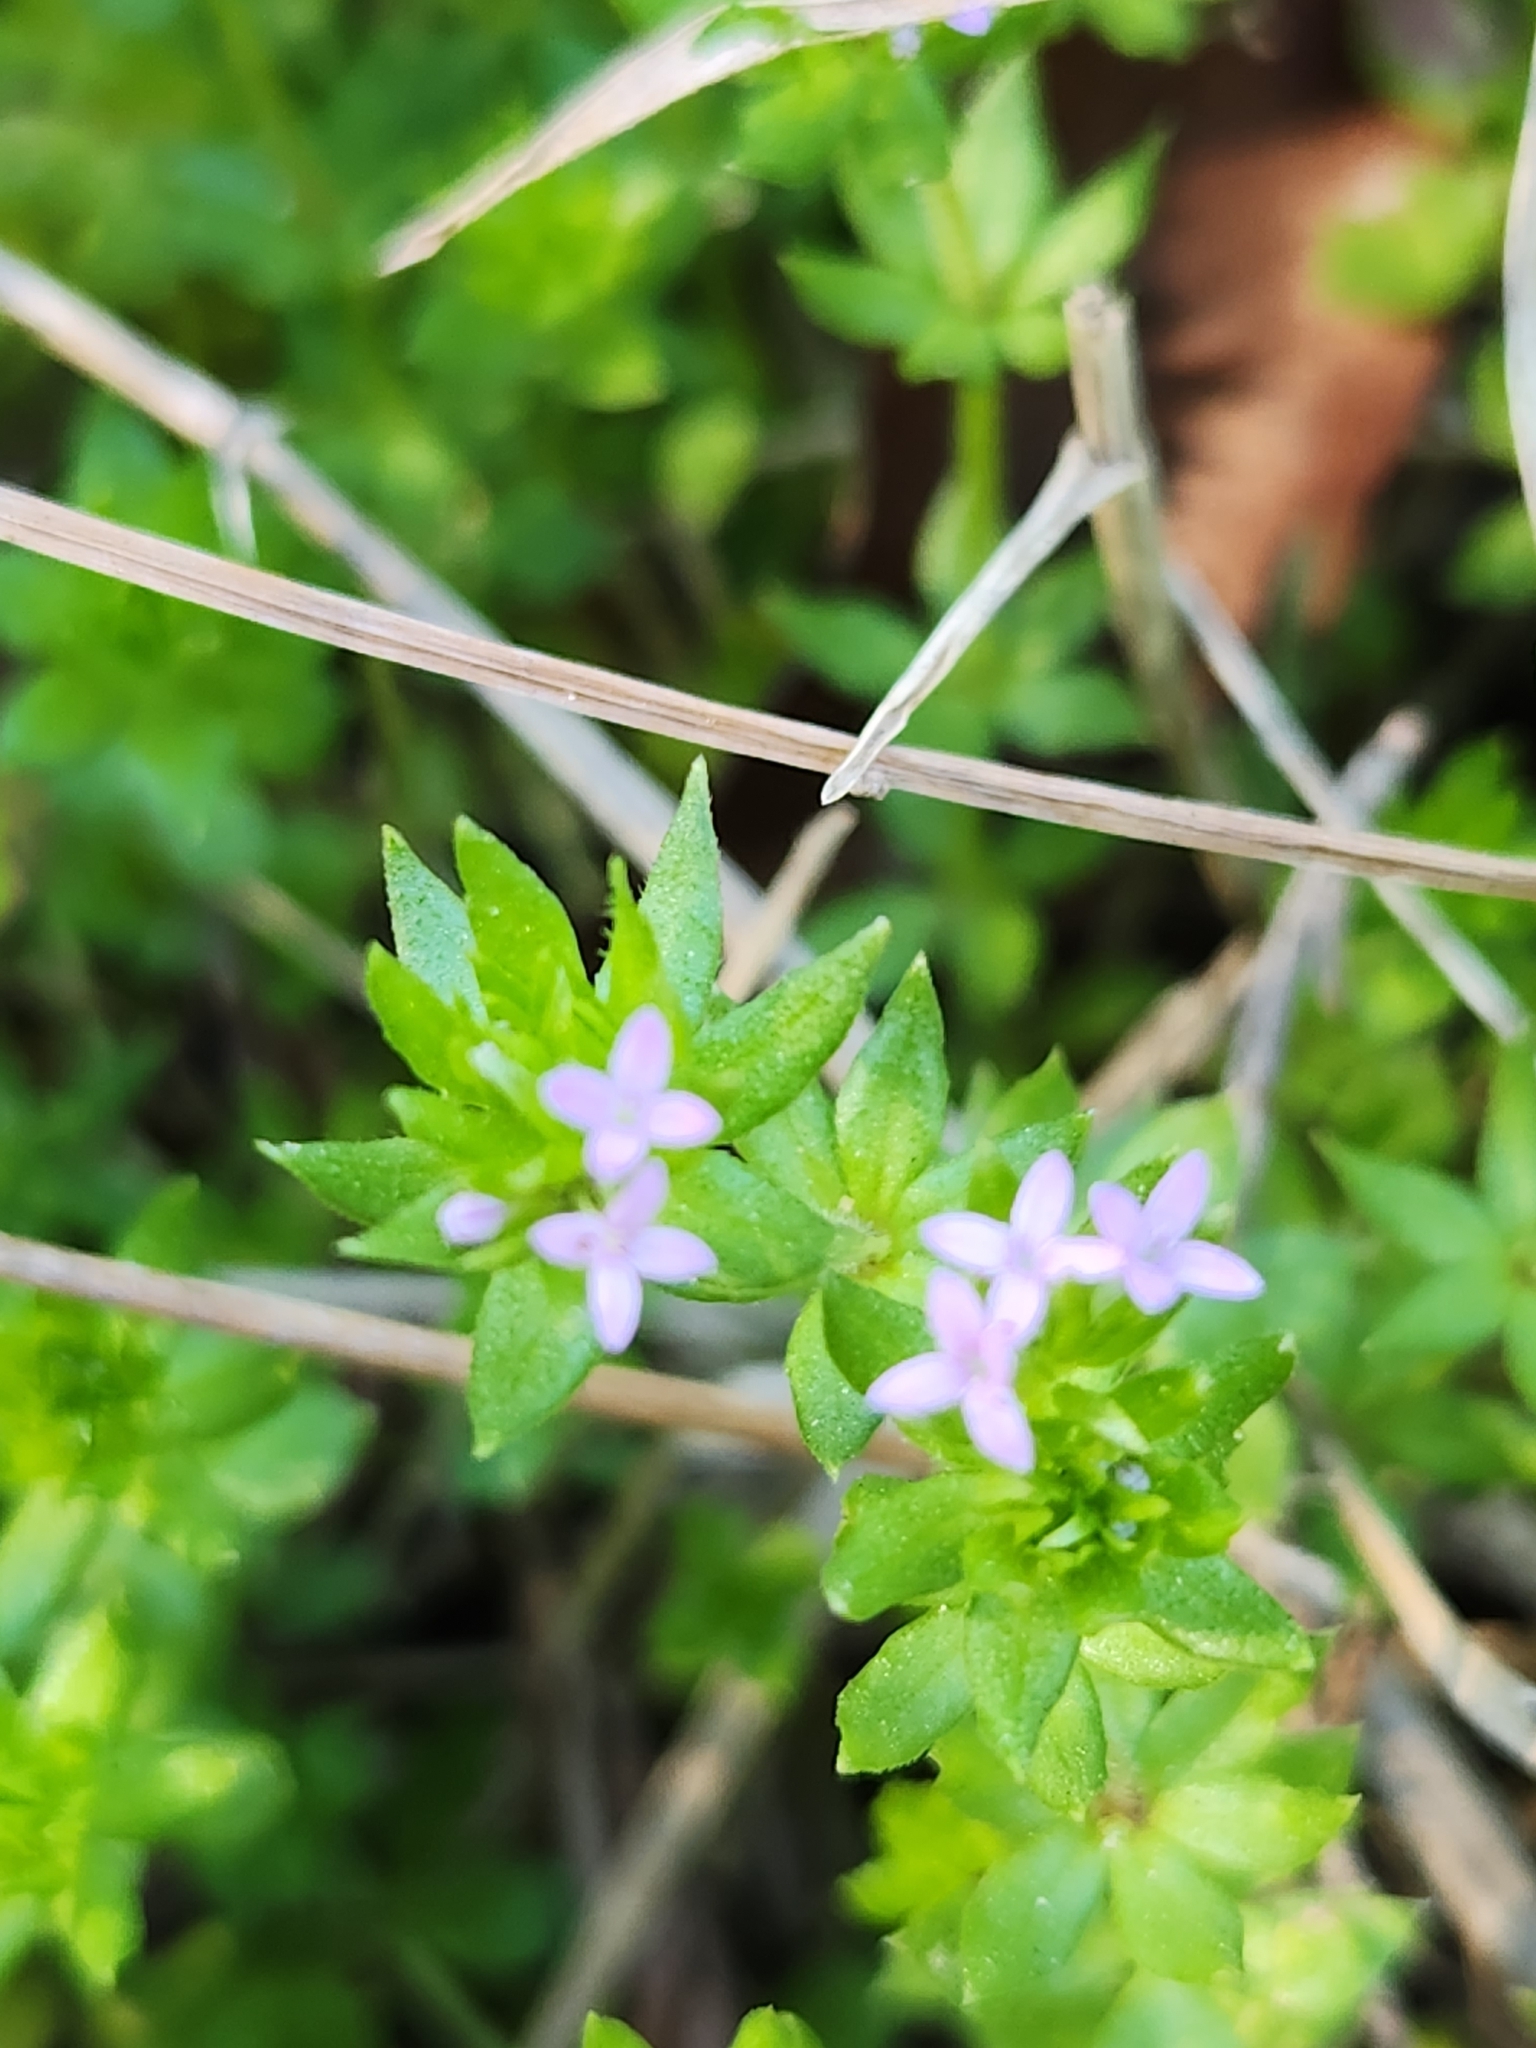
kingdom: Plantae
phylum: Tracheophyta
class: Magnoliopsida
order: Gentianales
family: Rubiaceae
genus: Sherardia
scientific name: Sherardia arvensis
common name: Field madder
